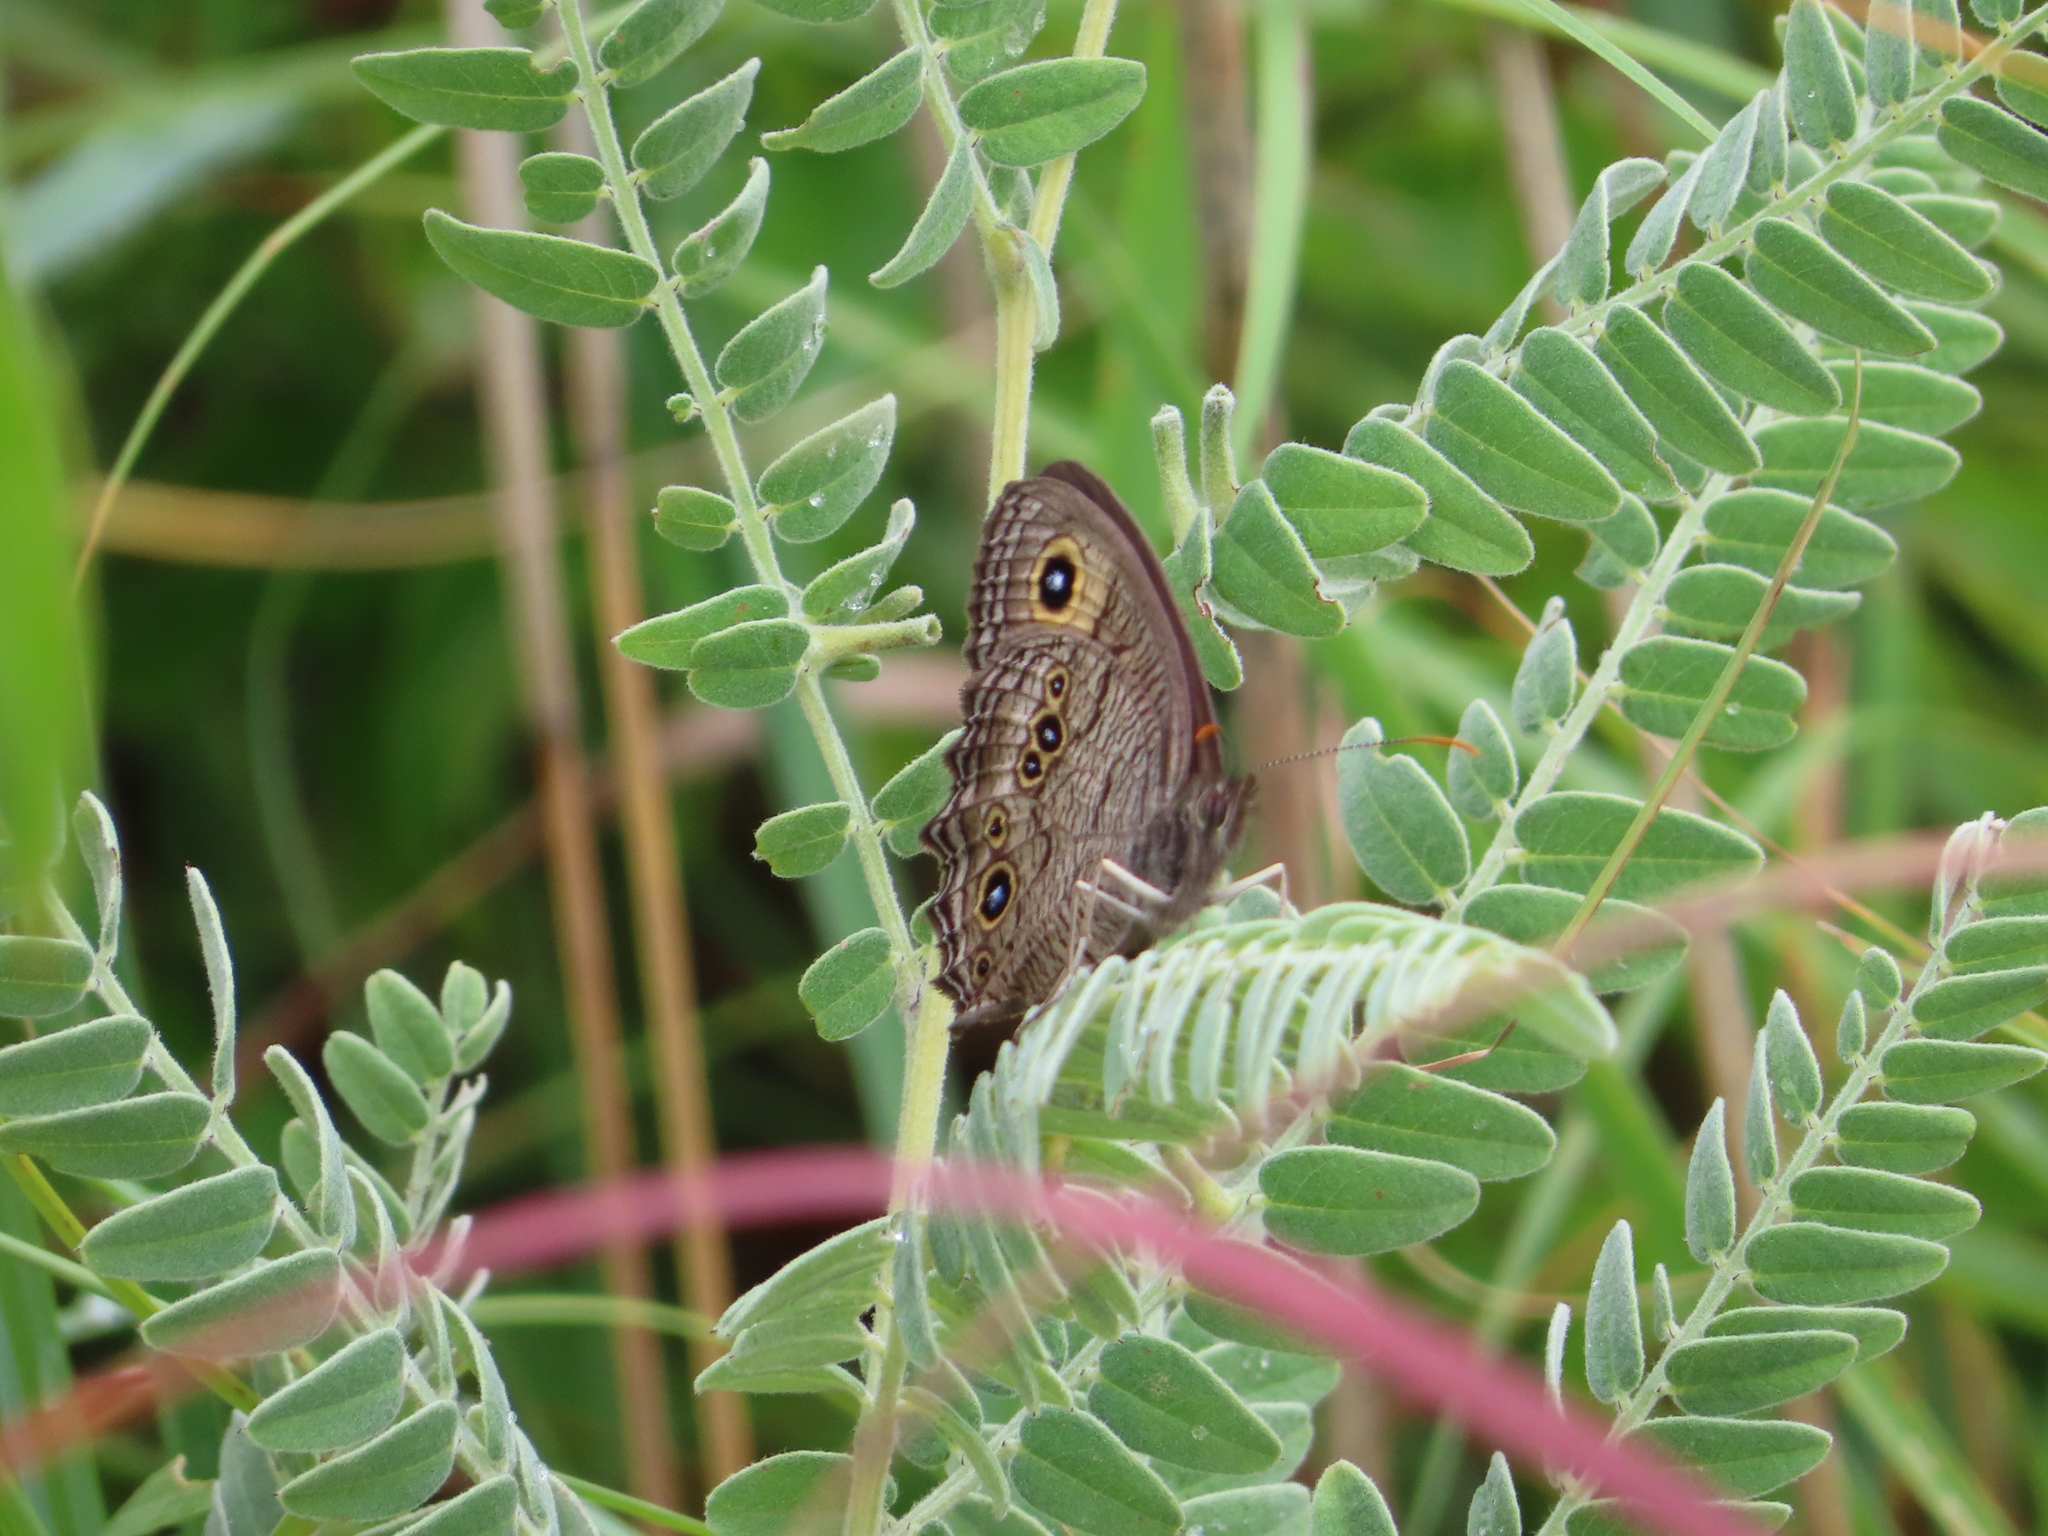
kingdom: Animalia
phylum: Arthropoda
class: Insecta
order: Lepidoptera
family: Nymphalidae
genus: Cercyonis
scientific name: Cercyonis pegala
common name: Common wood-nymph
